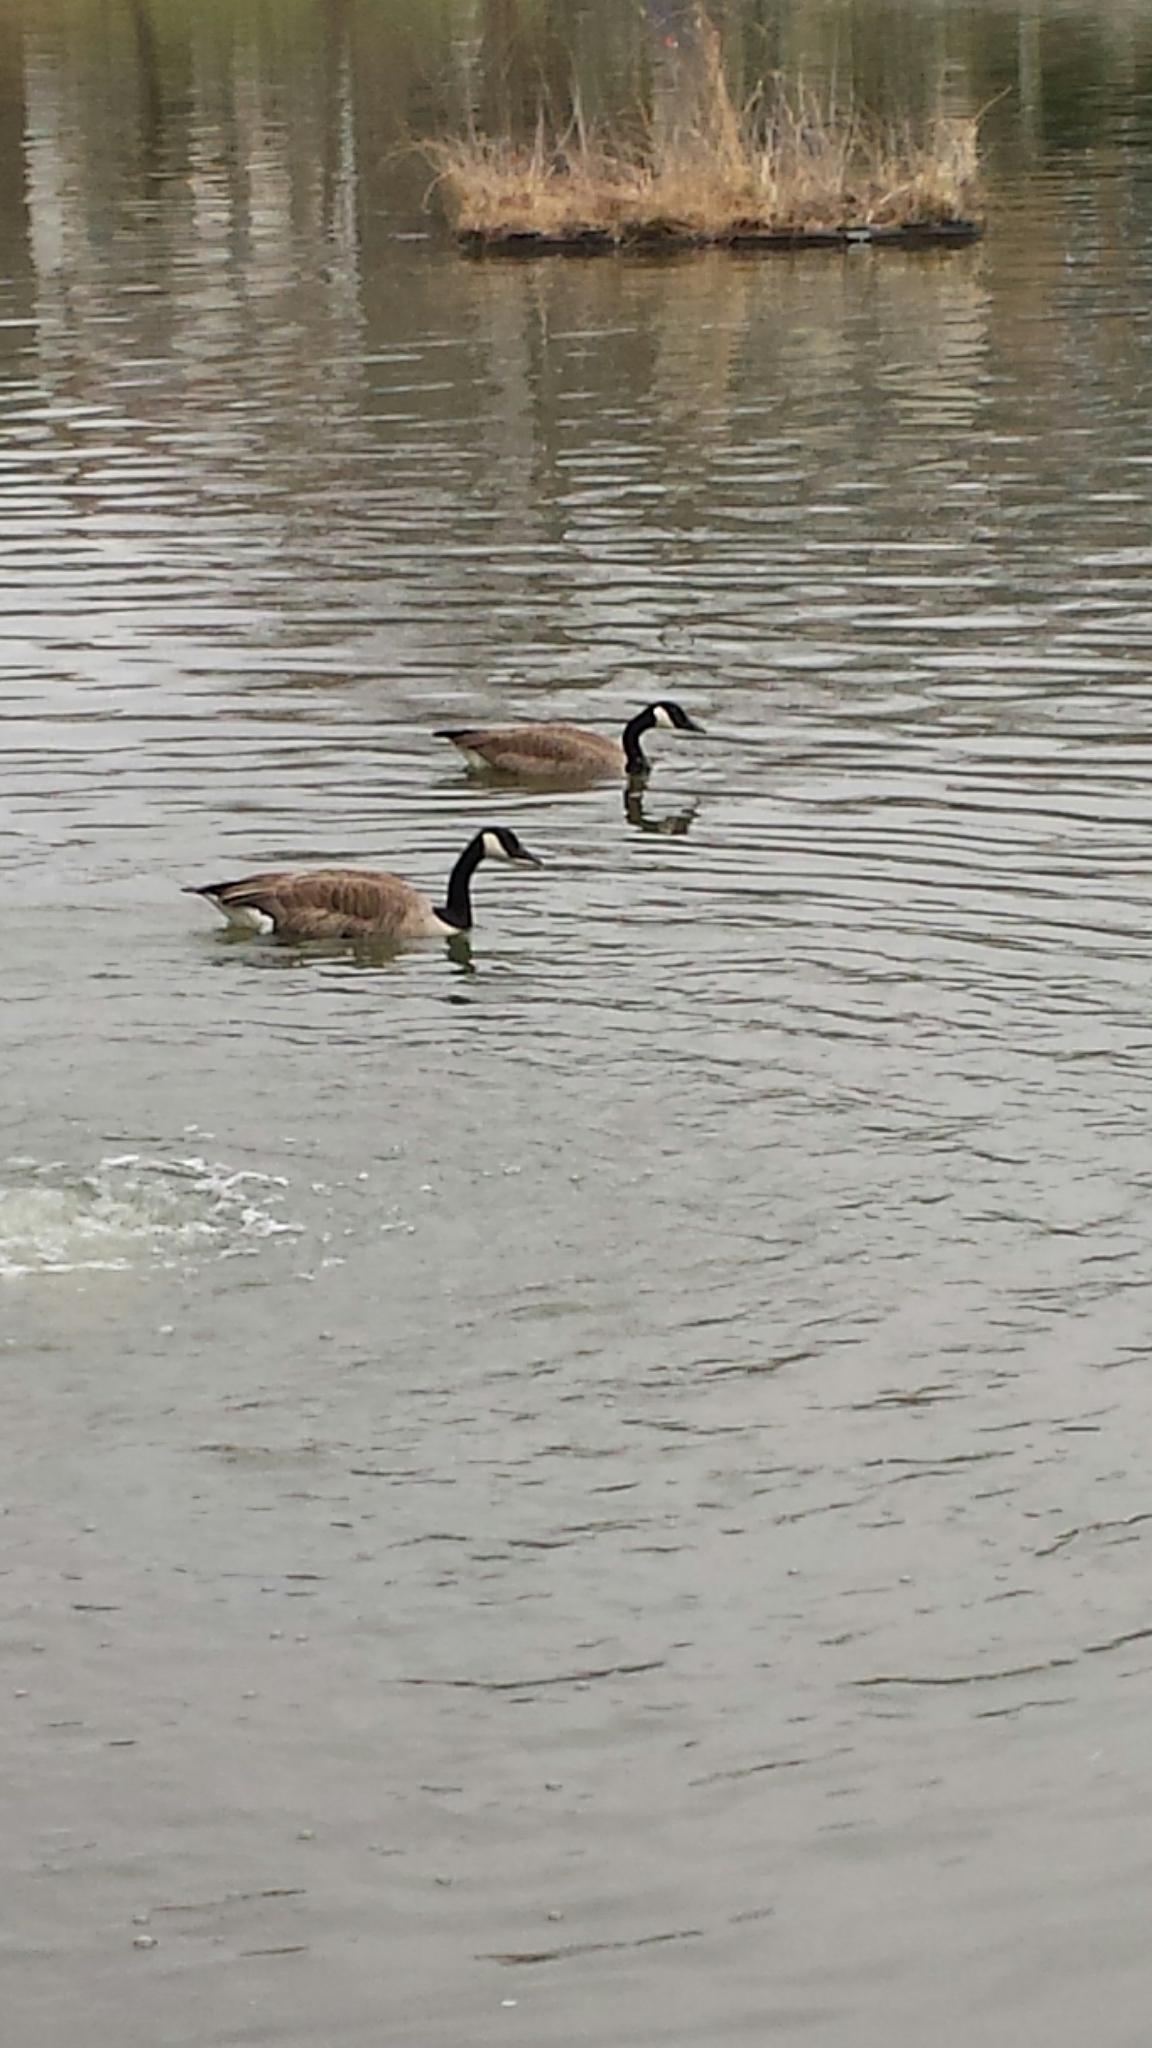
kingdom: Animalia
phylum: Chordata
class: Aves
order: Anseriformes
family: Anatidae
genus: Branta
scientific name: Branta canadensis
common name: Canada goose
